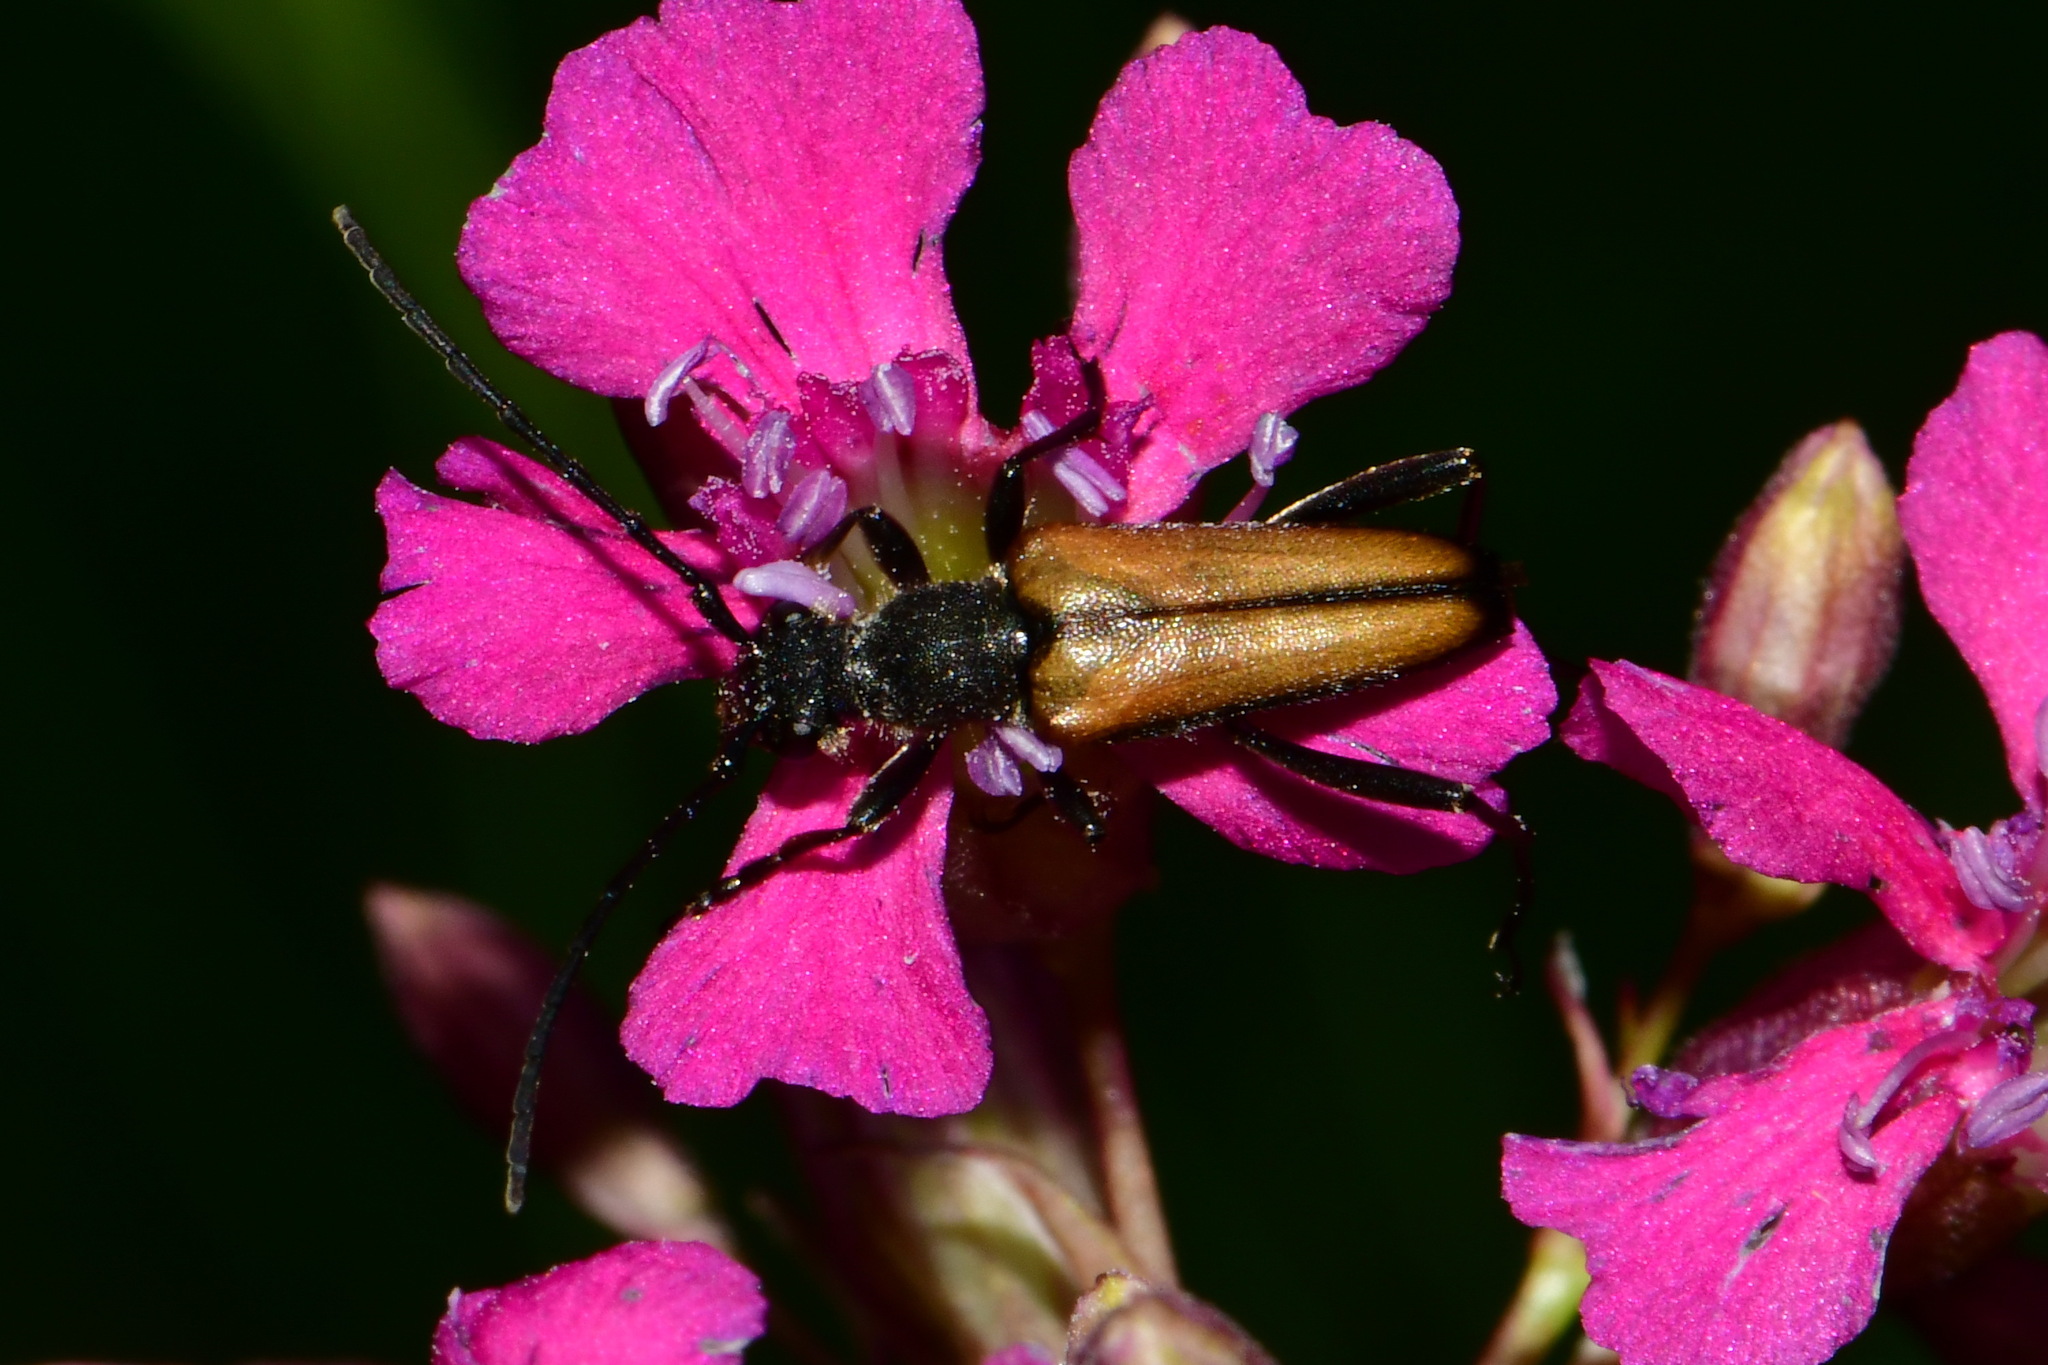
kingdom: Animalia
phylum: Arthropoda
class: Insecta
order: Coleoptera
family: Cerambycidae
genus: Anastrangalia
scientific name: Anastrangalia reyi
